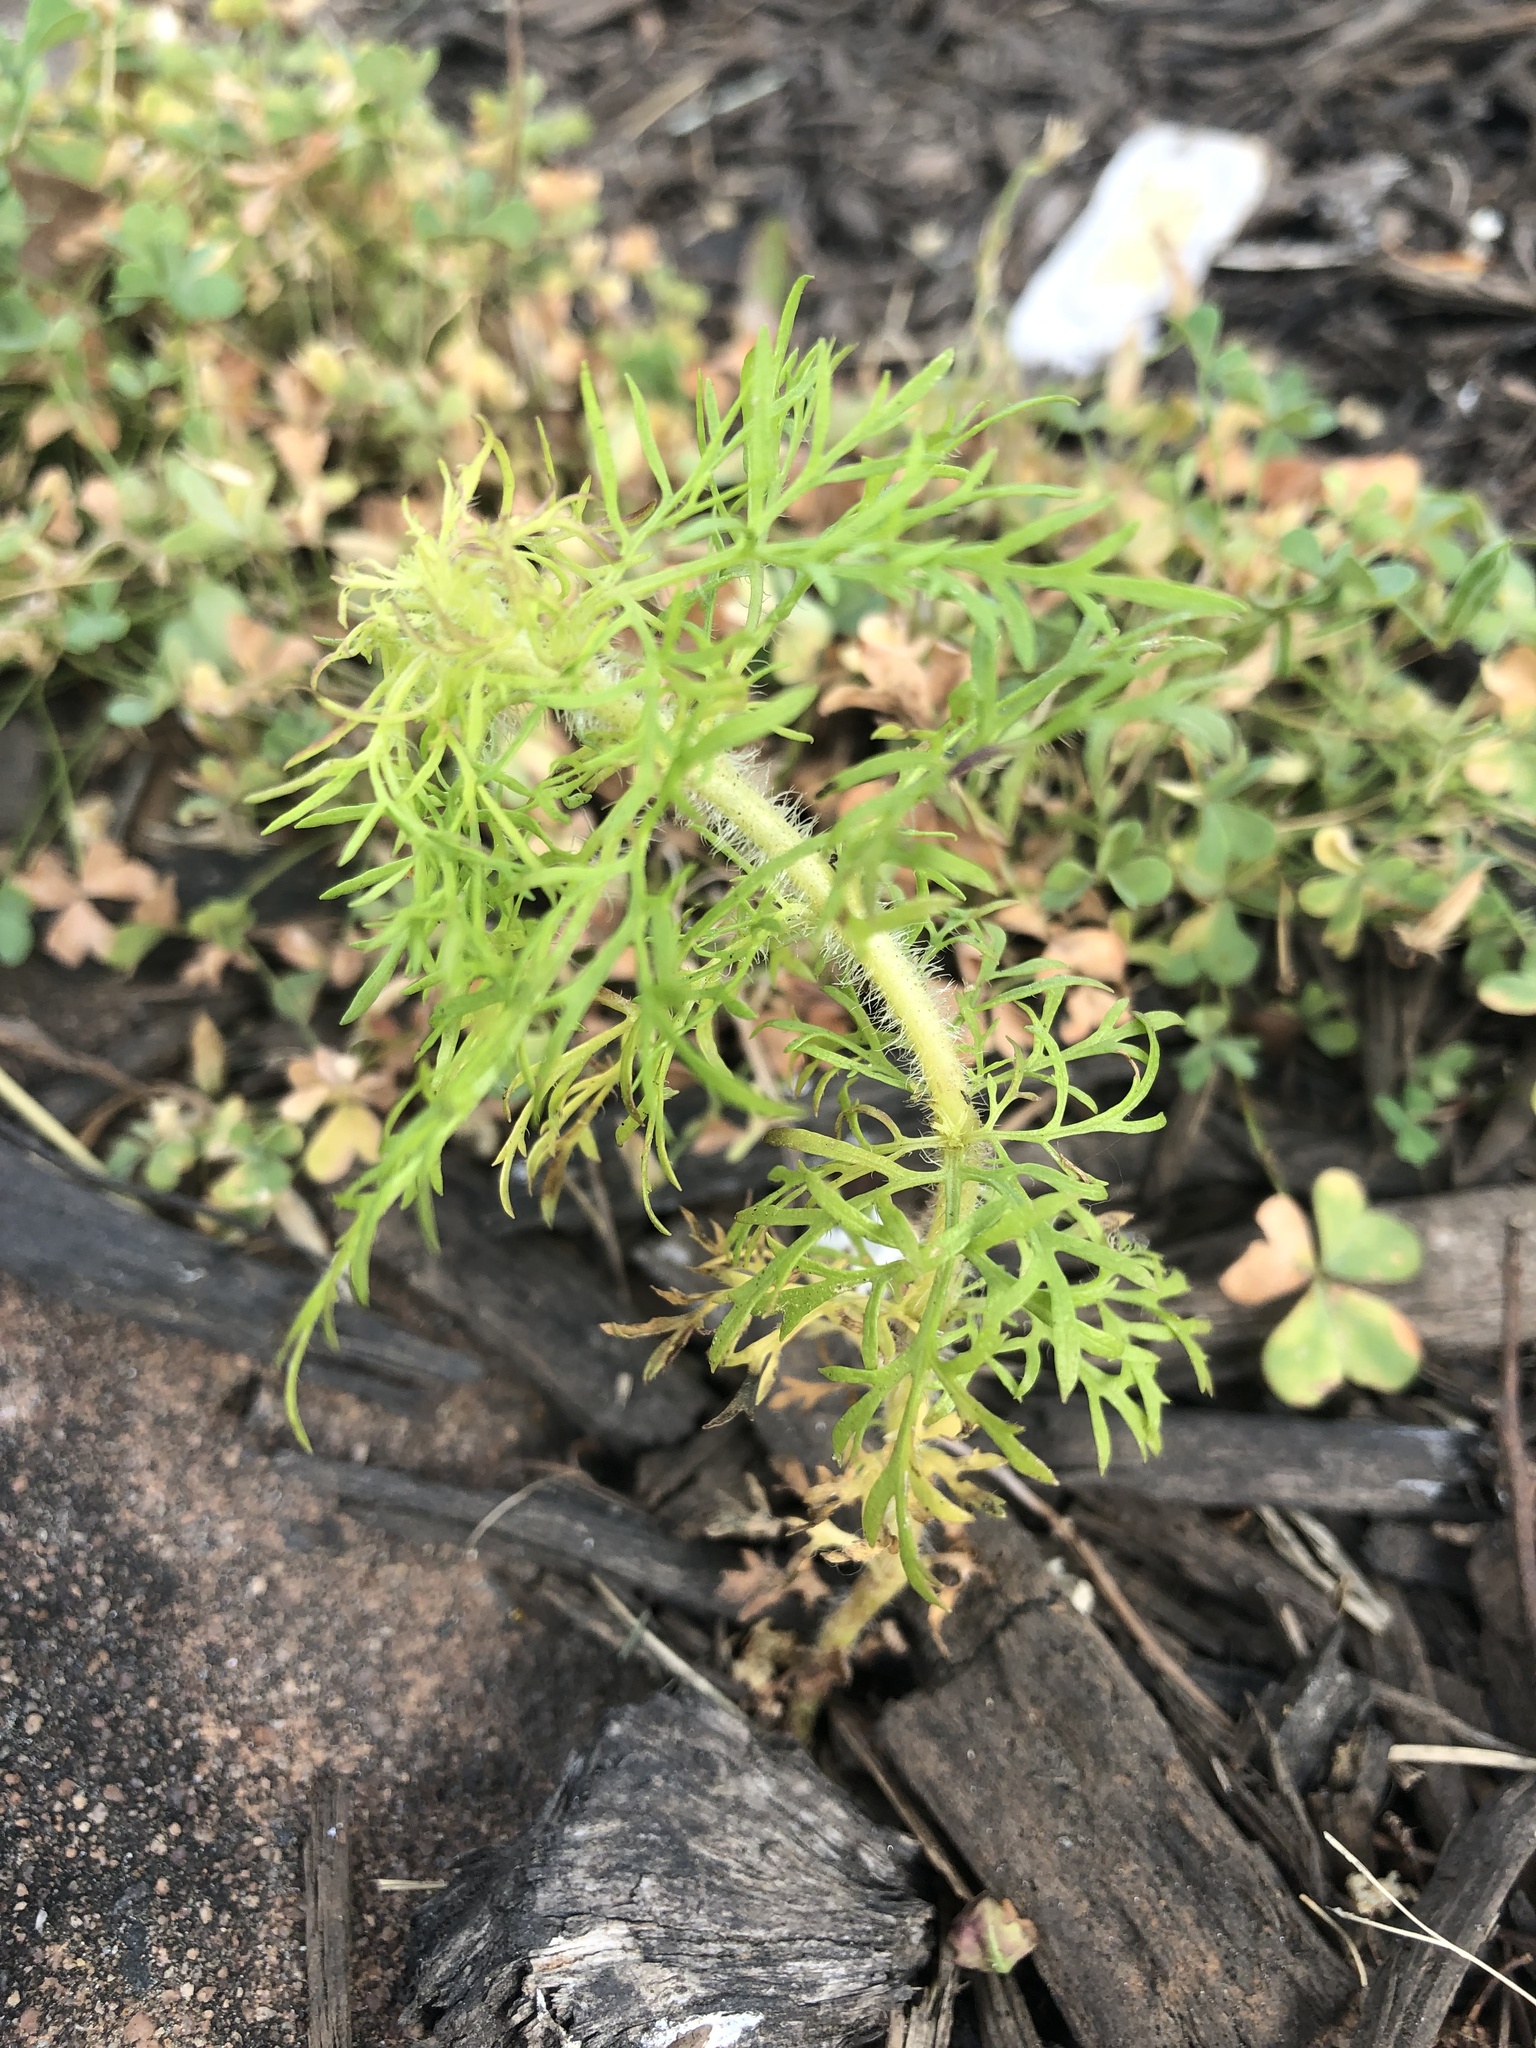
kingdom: Plantae
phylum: Tracheophyta
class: Magnoliopsida
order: Asterales
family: Asteraceae
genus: Eupatorium
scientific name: Eupatorium capillifolium
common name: Dog-fennel
